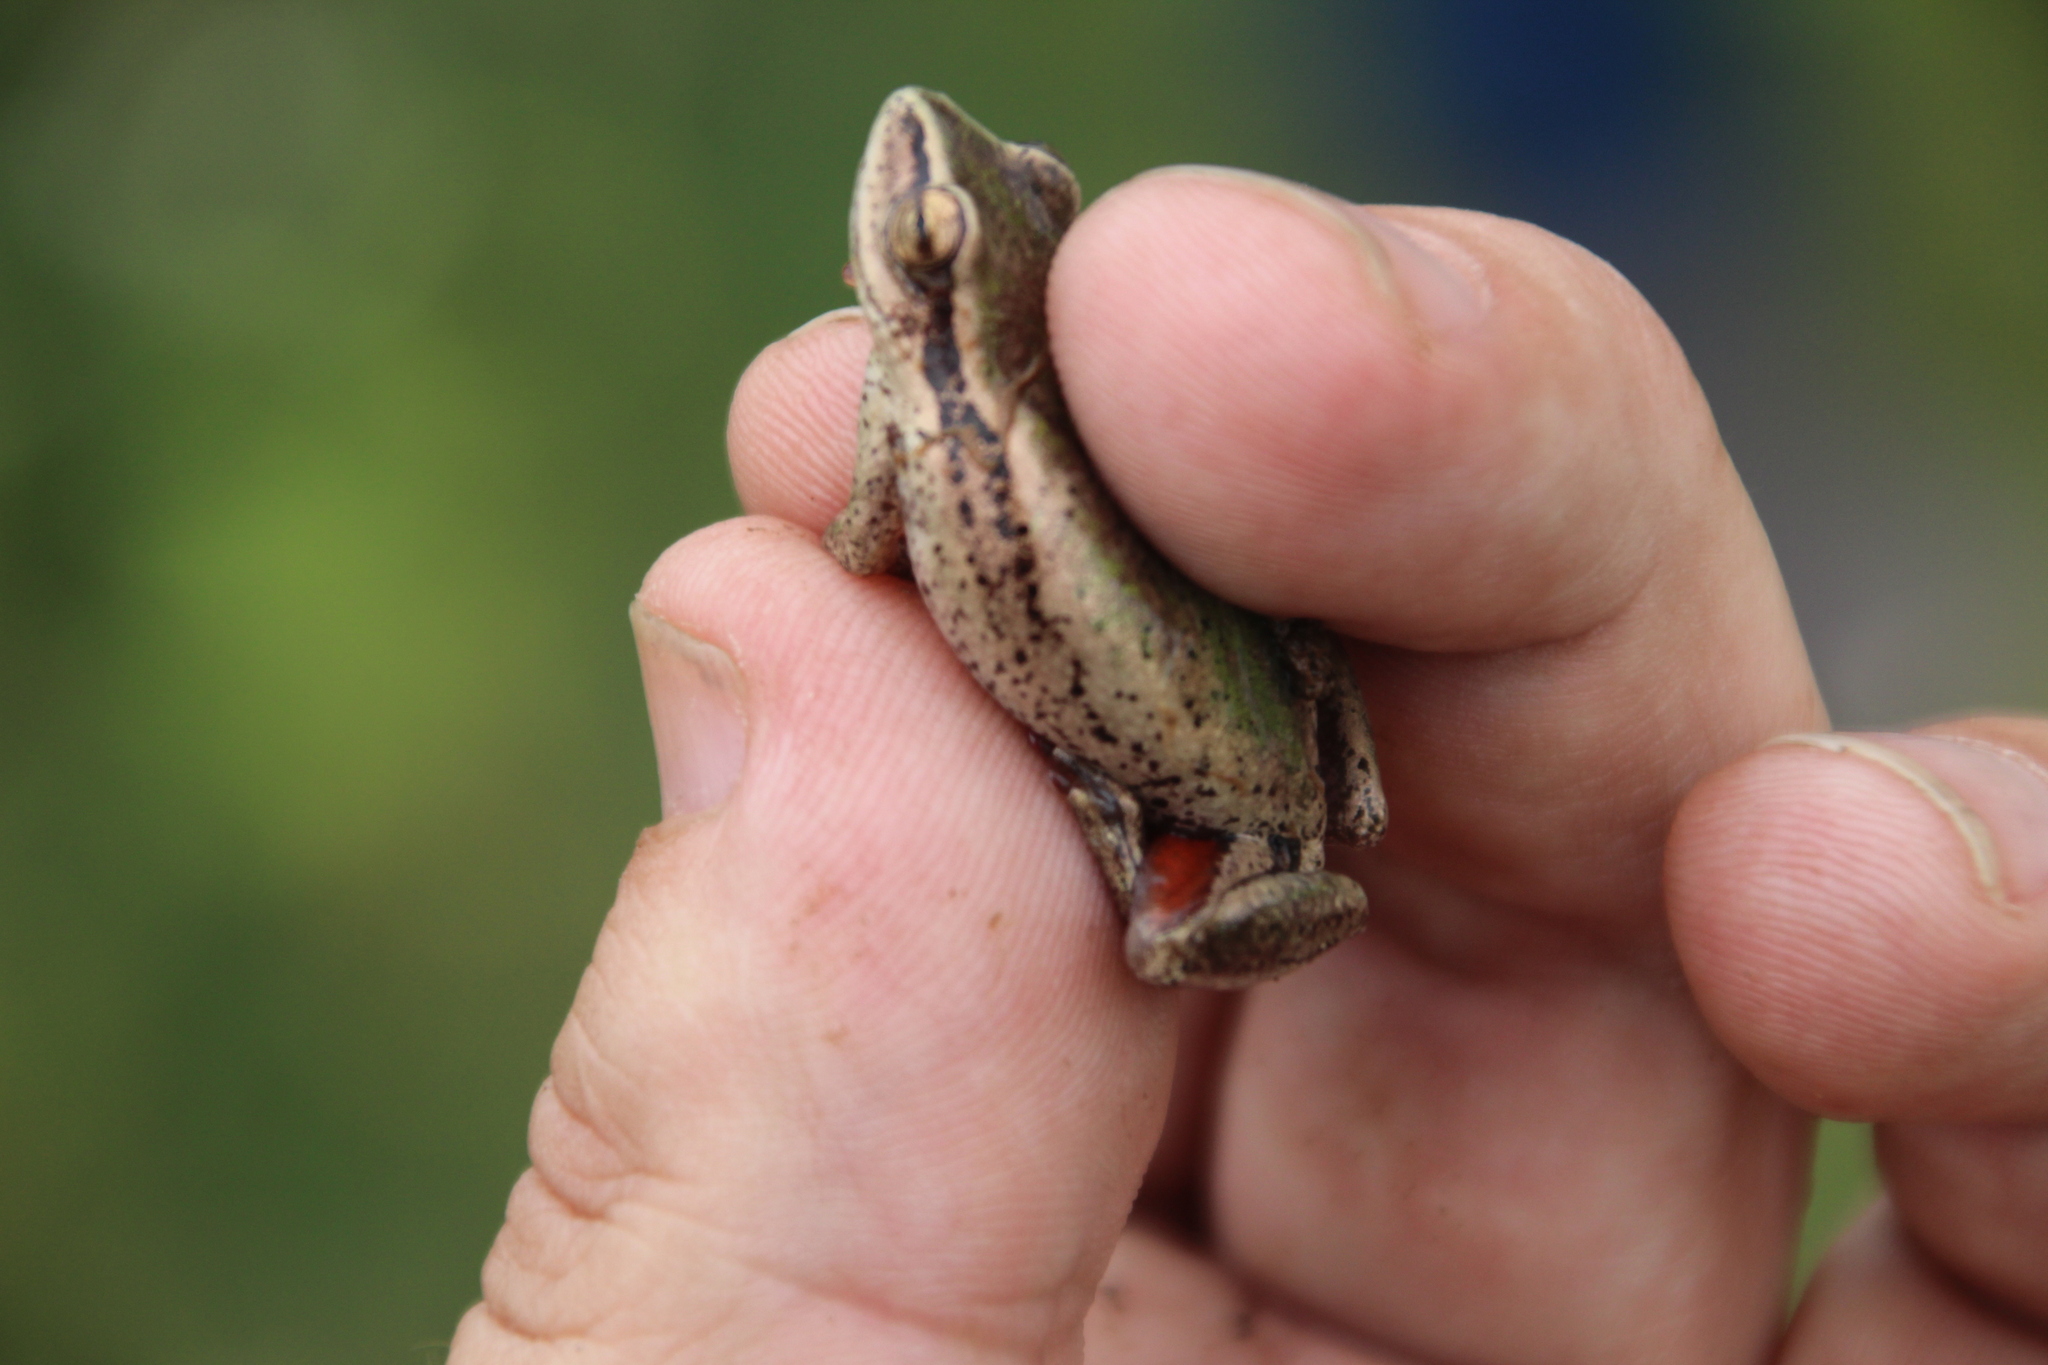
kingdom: Animalia
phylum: Chordata
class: Amphibia
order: Anura
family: Hyperoliidae
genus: Hyperolius
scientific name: Hyperolius kivuensis
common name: Kivu reed frog
